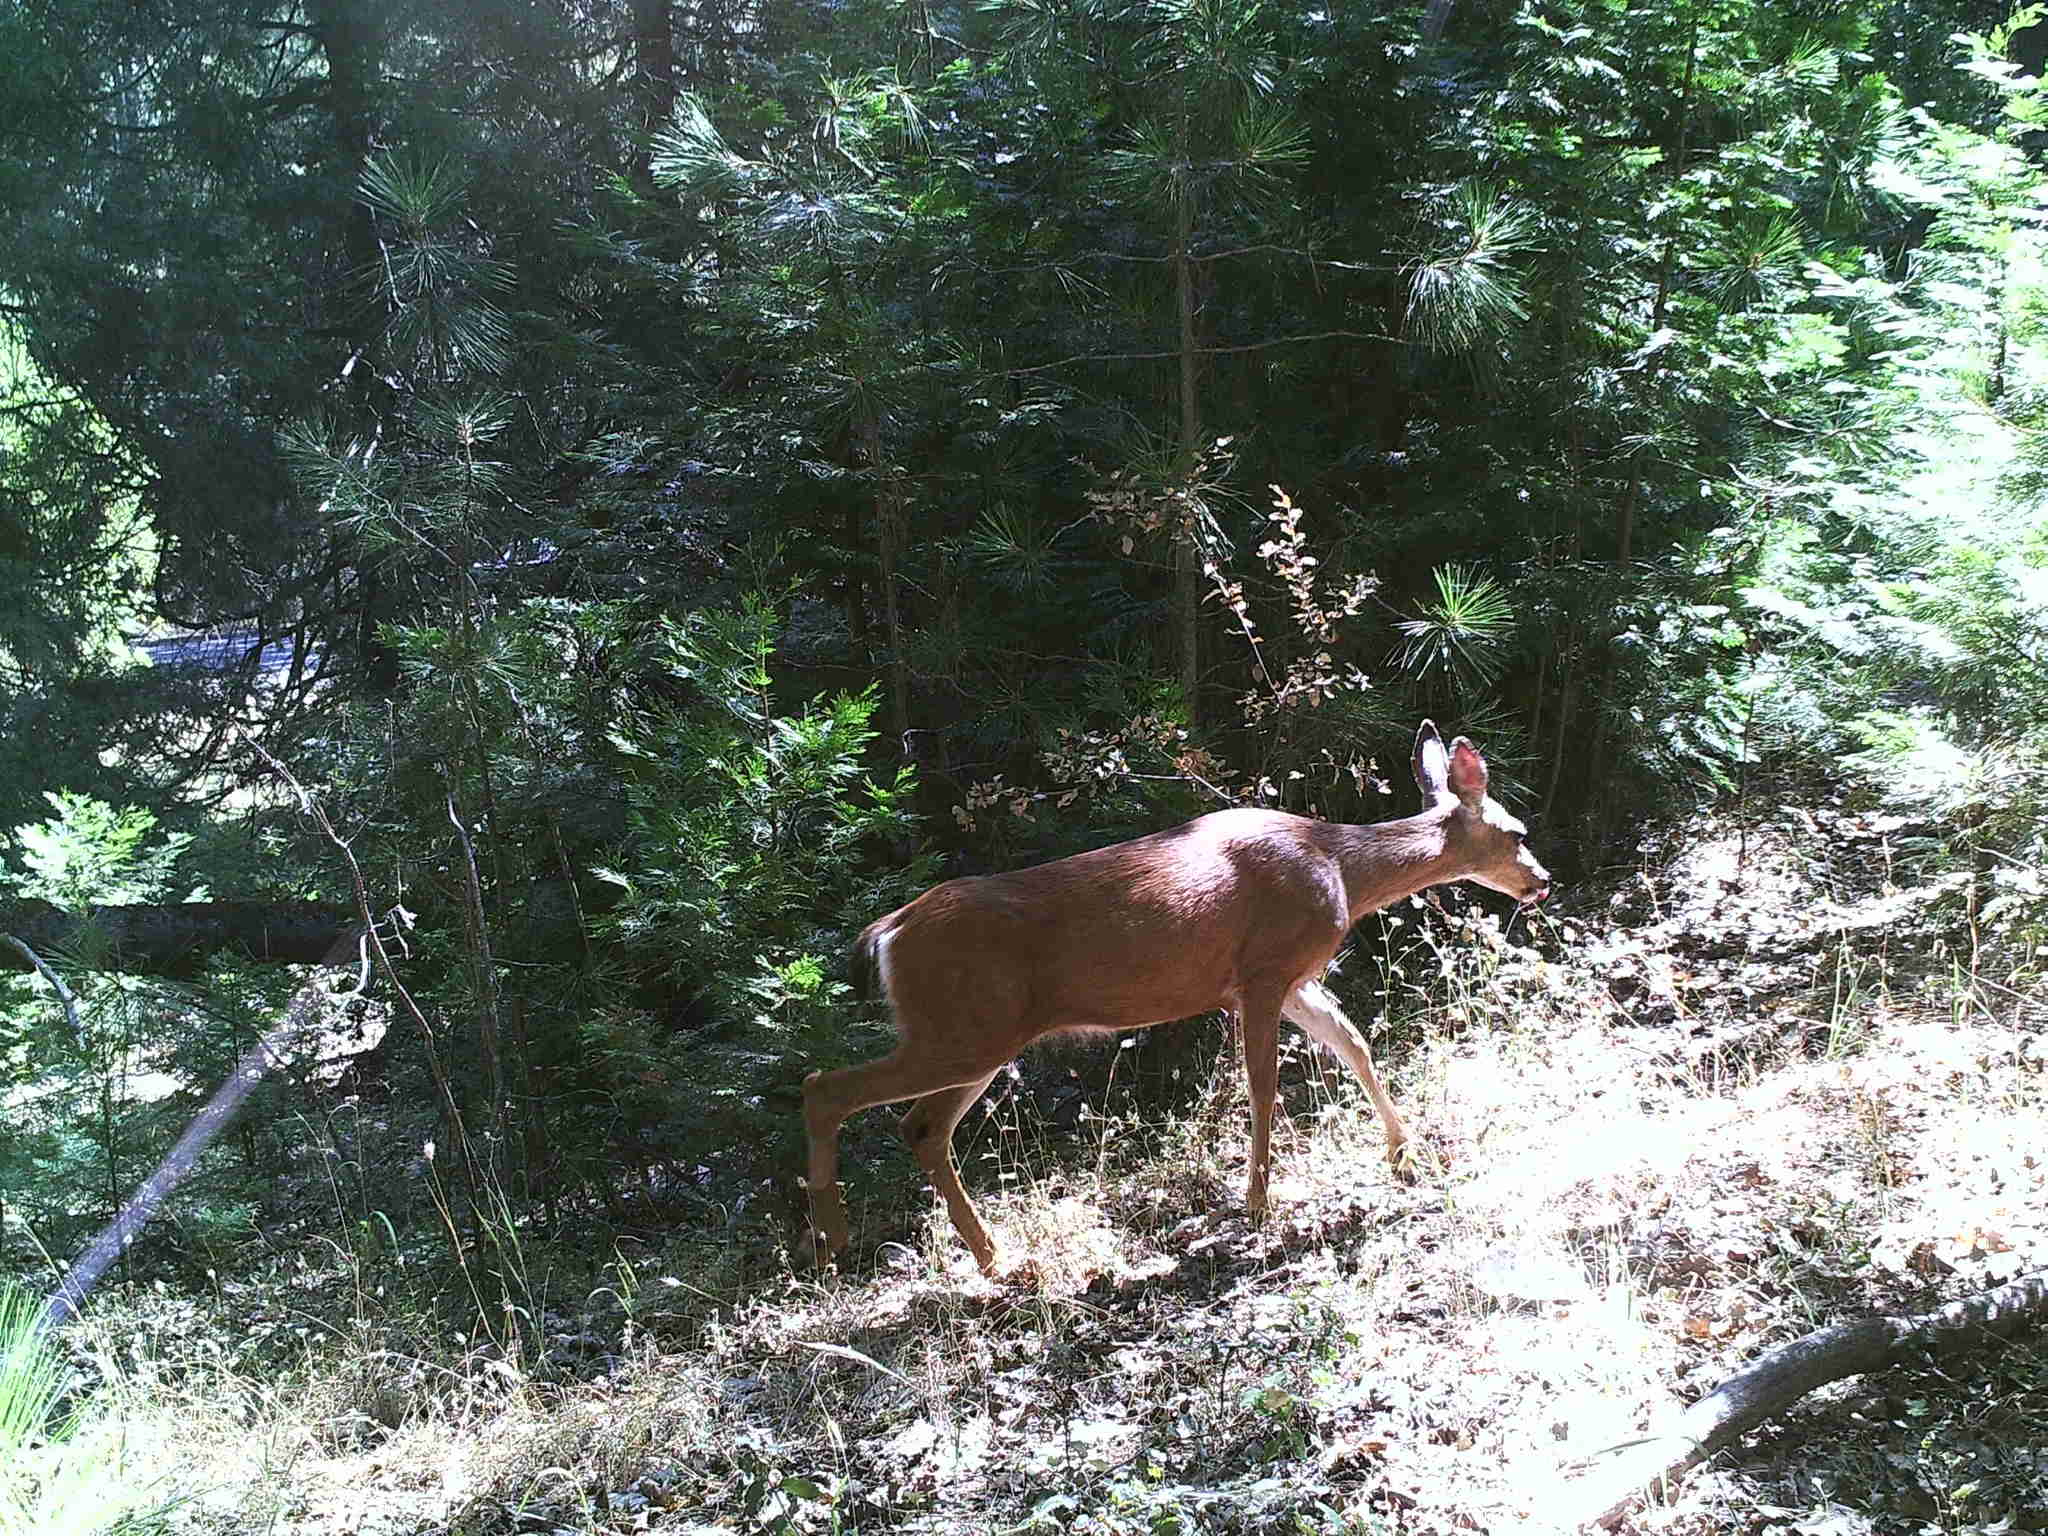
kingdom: Animalia
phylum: Chordata
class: Mammalia
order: Artiodactyla
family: Cervidae
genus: Odocoileus
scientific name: Odocoileus hemionus
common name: Mule deer
